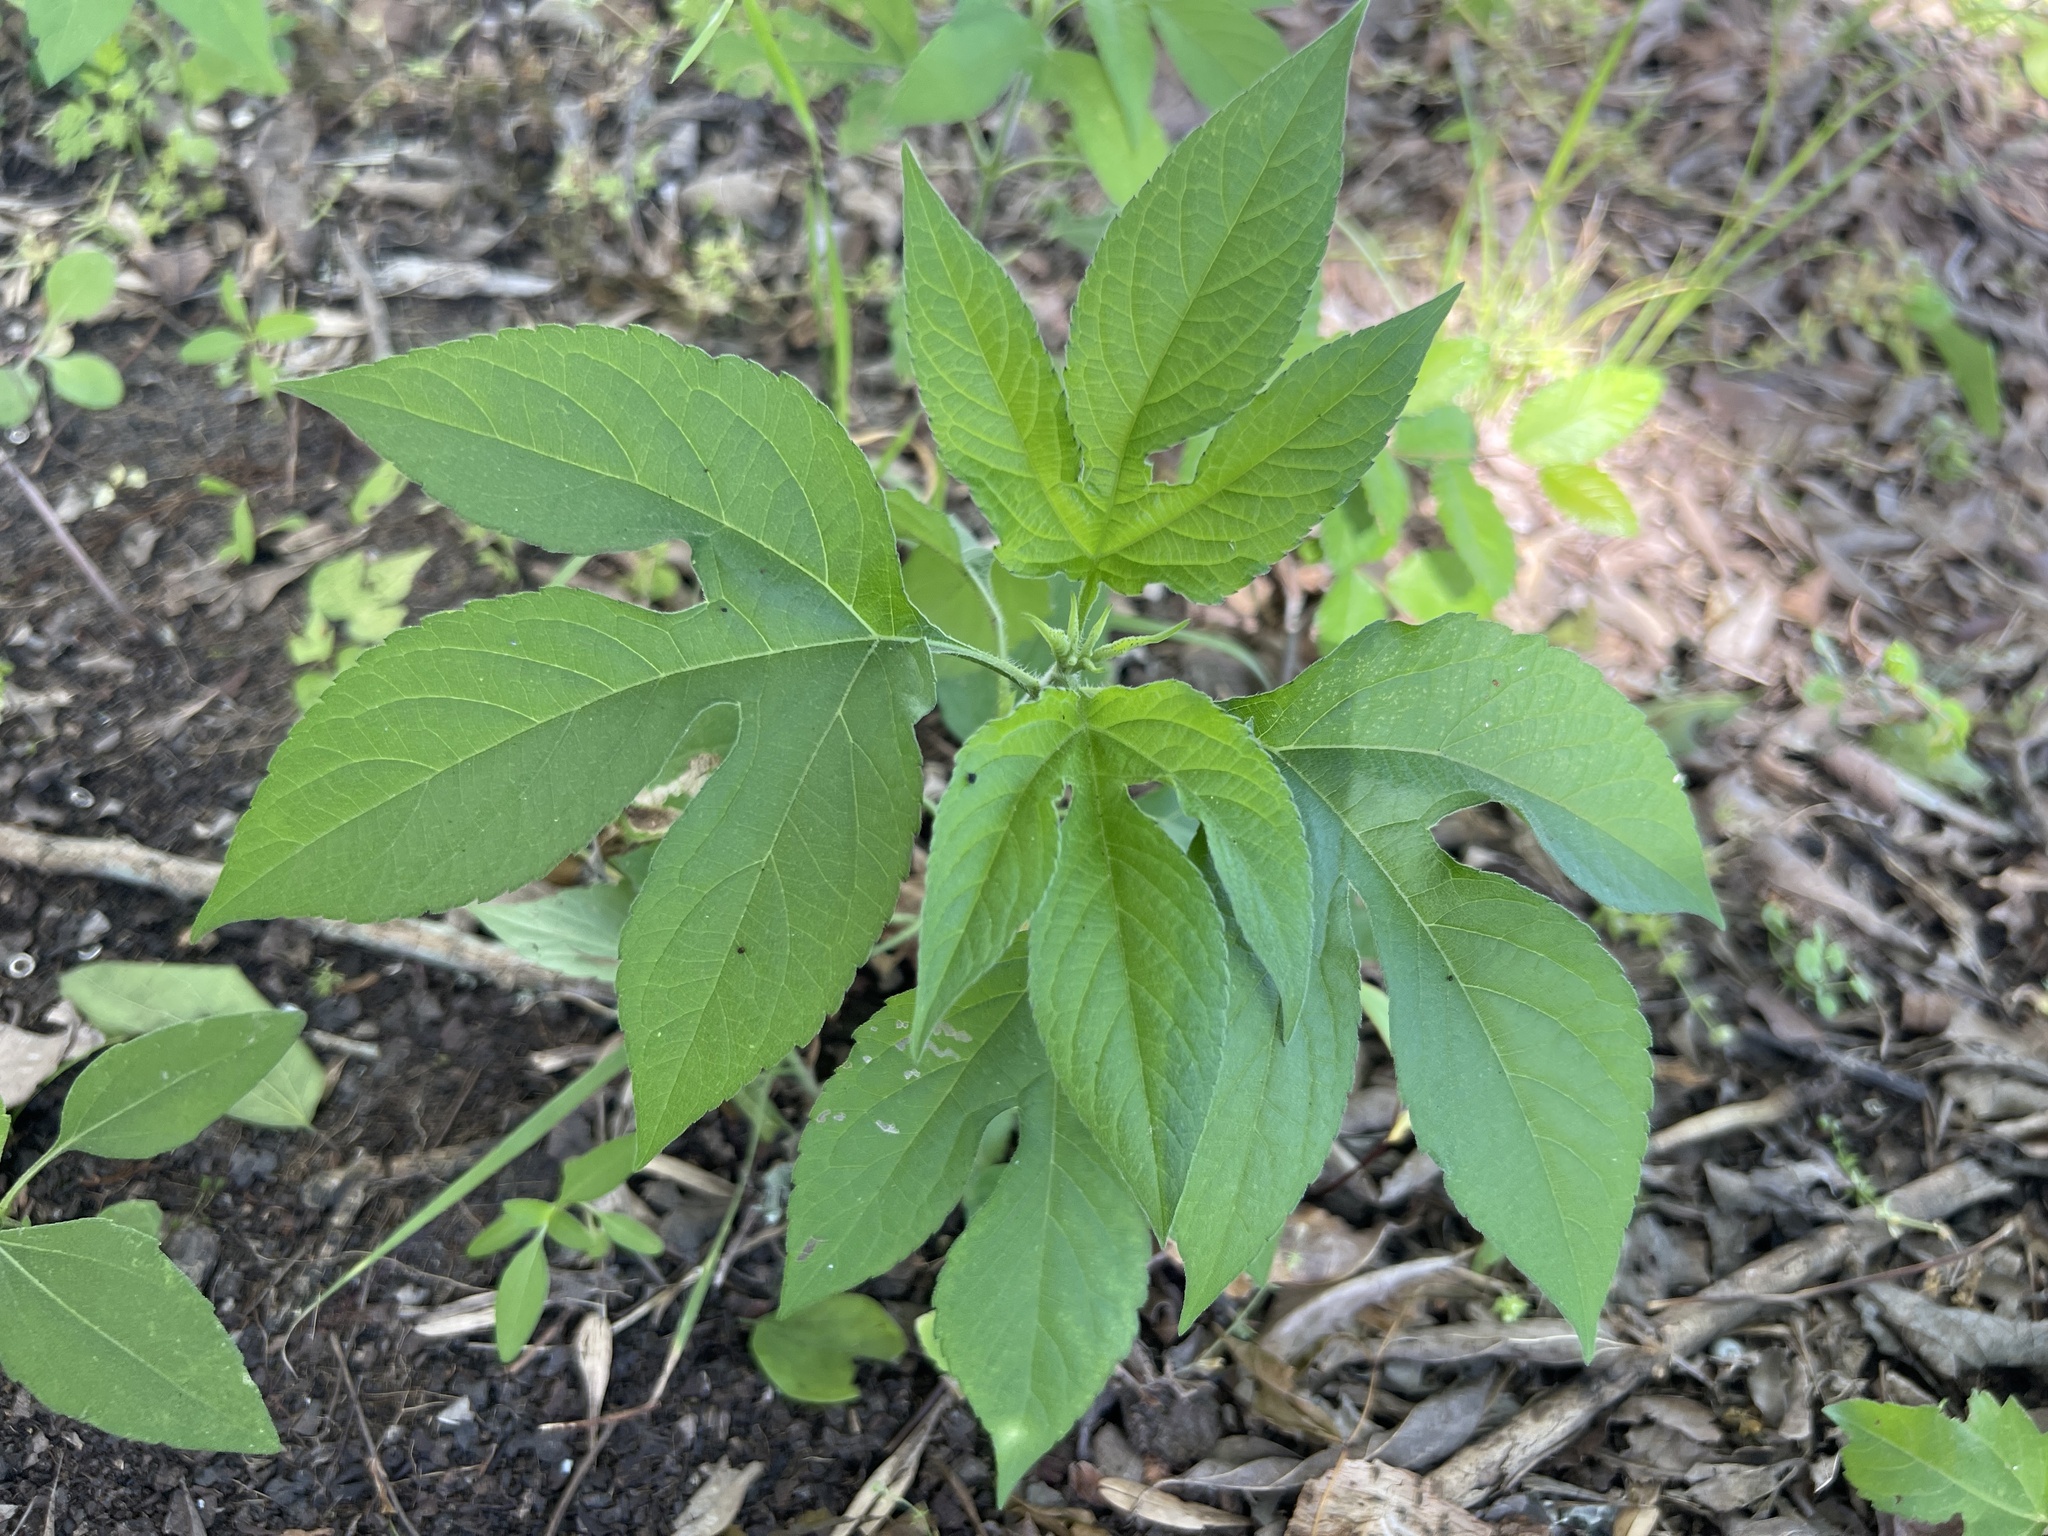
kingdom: Plantae
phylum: Tracheophyta
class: Magnoliopsida
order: Asterales
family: Asteraceae
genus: Ambrosia
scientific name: Ambrosia trifida
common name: Giant ragweed
